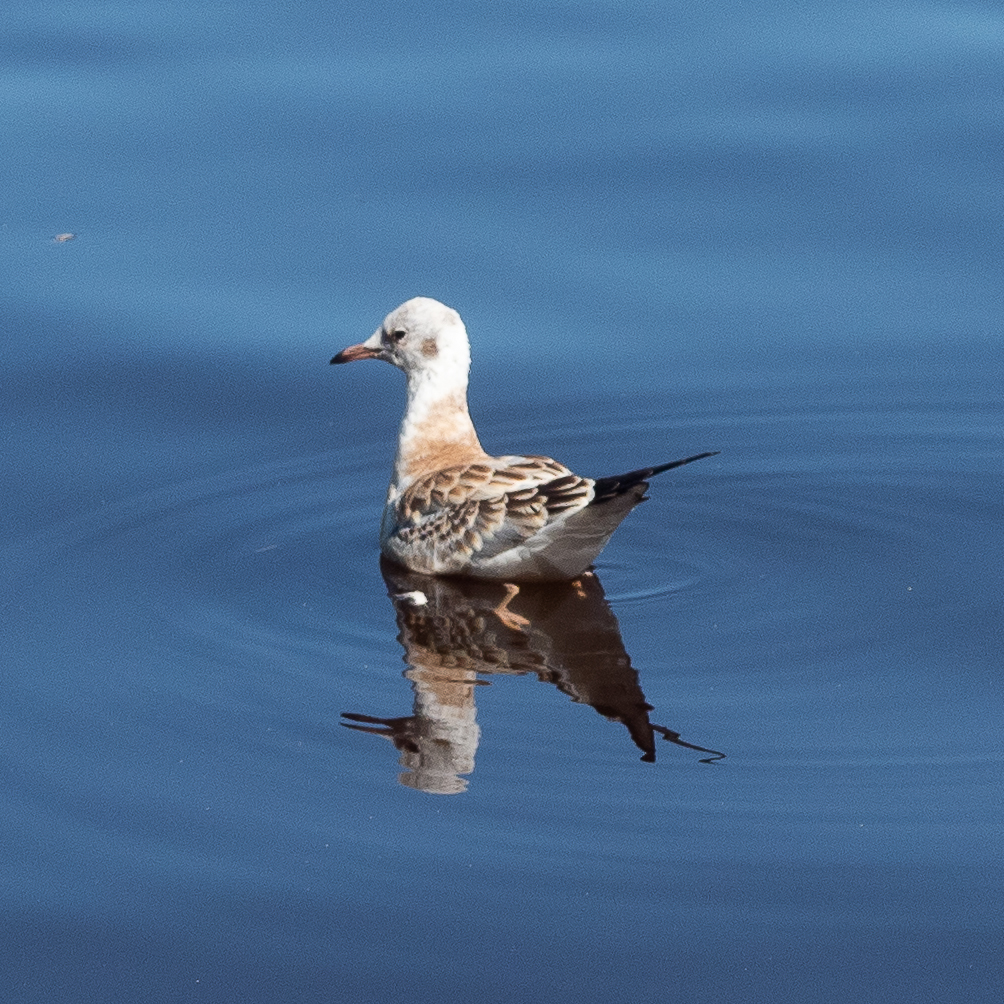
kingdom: Animalia
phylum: Chordata
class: Aves
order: Charadriiformes
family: Laridae
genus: Chroicocephalus
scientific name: Chroicocephalus ridibundus
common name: Black-headed gull
